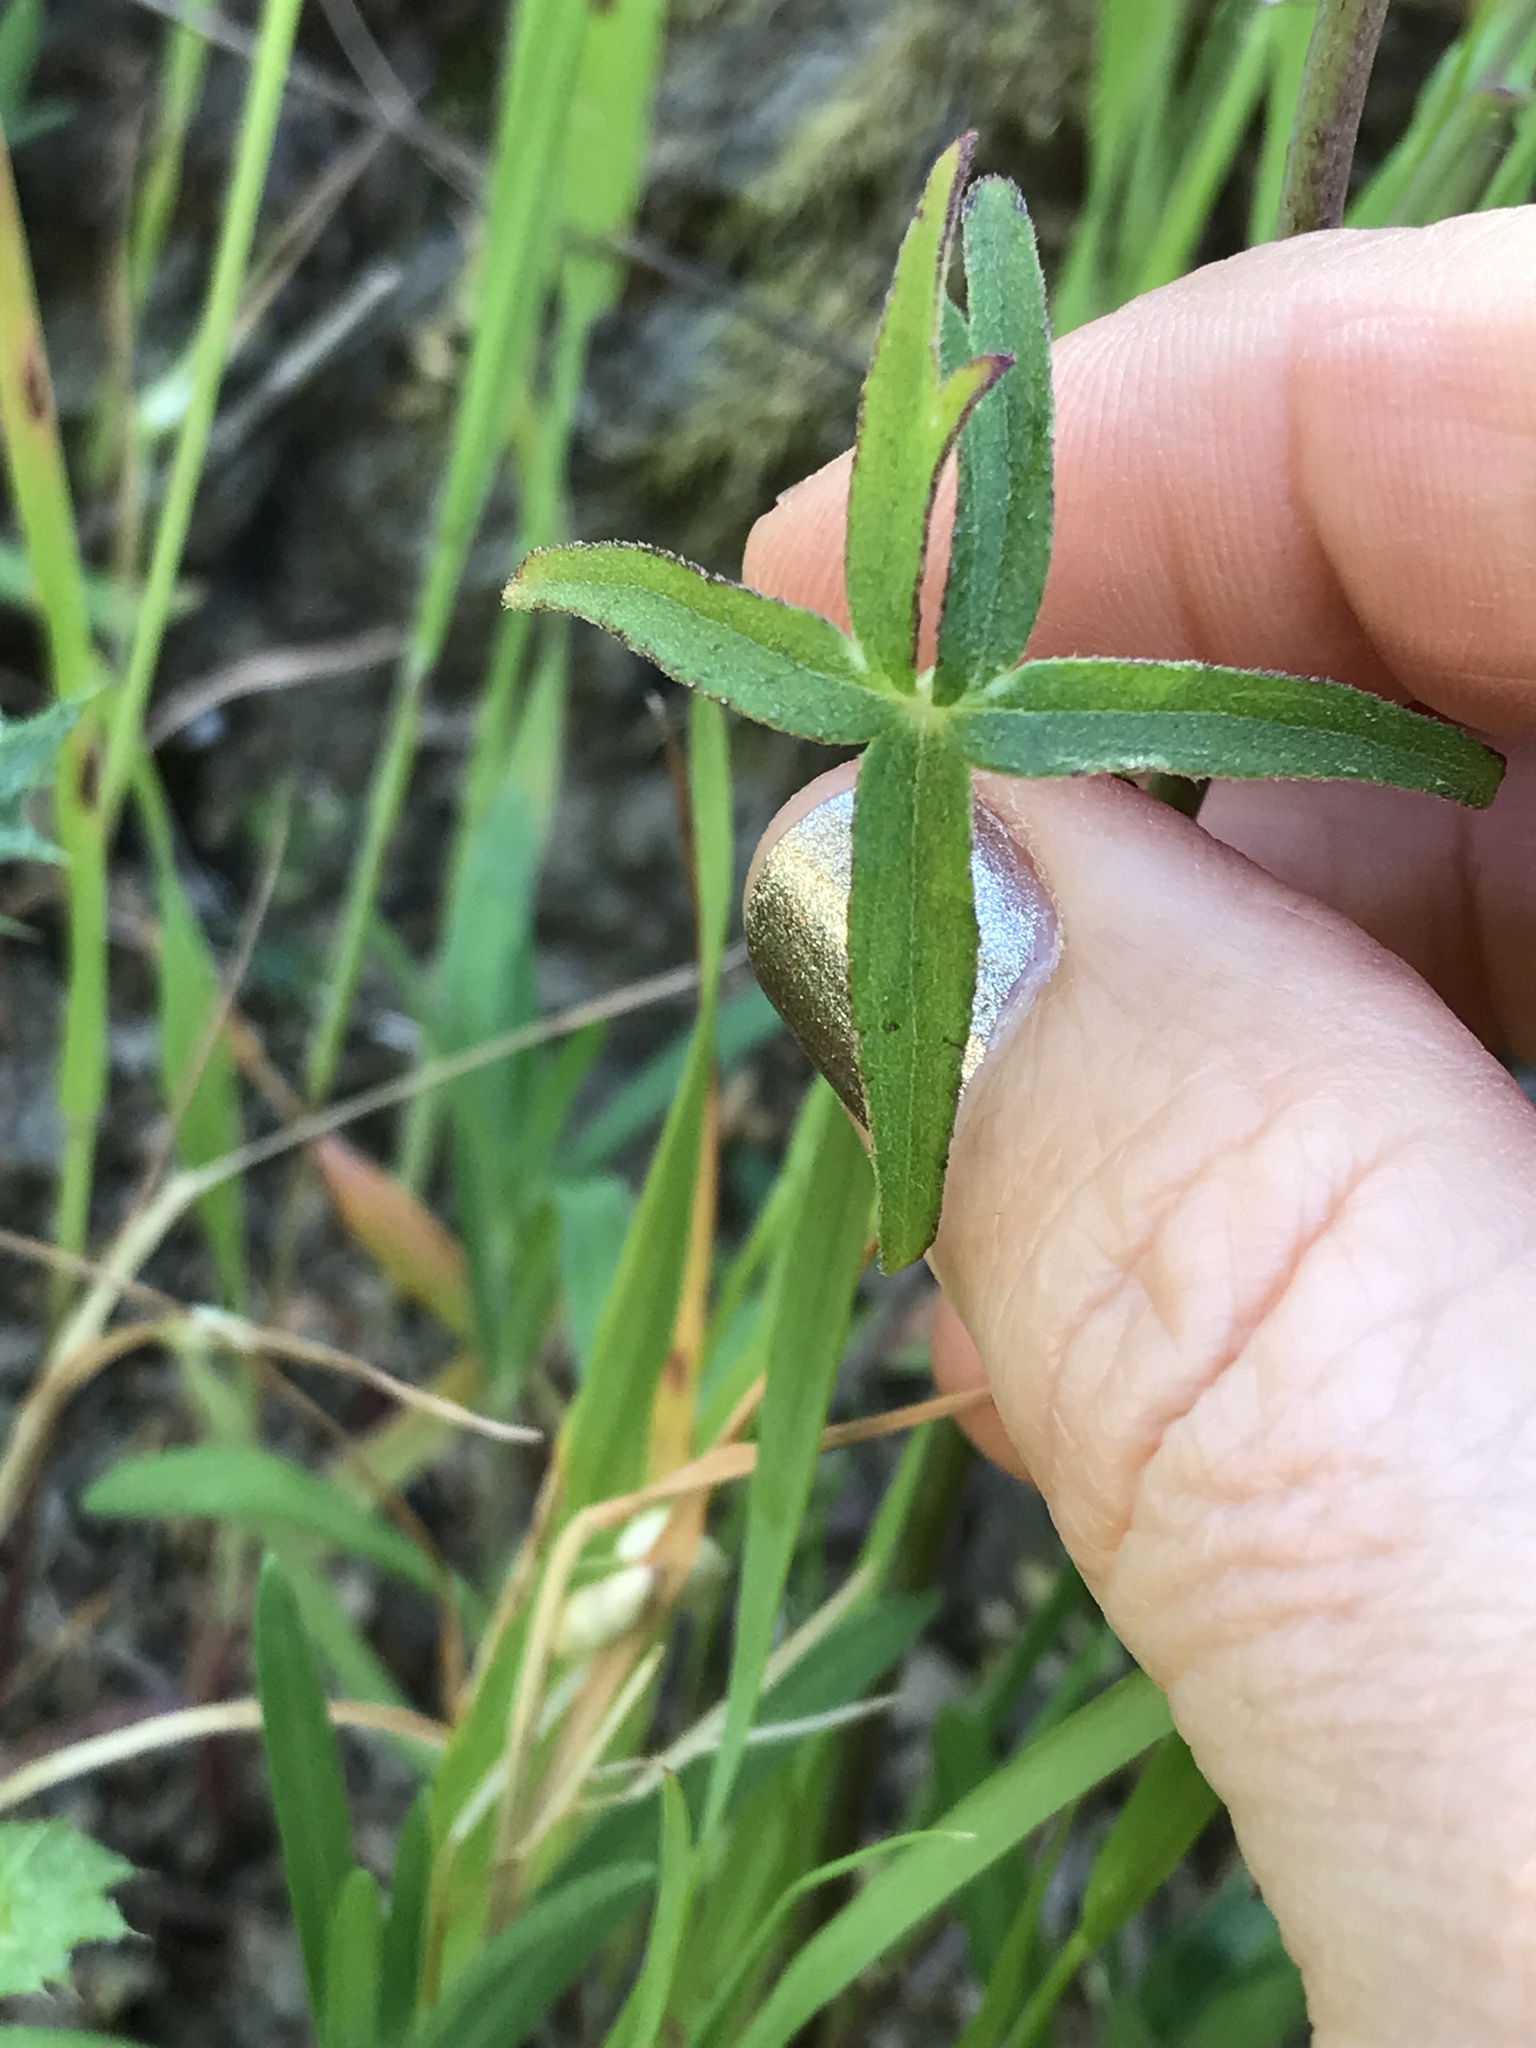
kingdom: Plantae
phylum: Tracheophyta
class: Magnoliopsida
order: Ranunculales
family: Ranunculaceae
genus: Delphinium
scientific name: Delphinium patens
